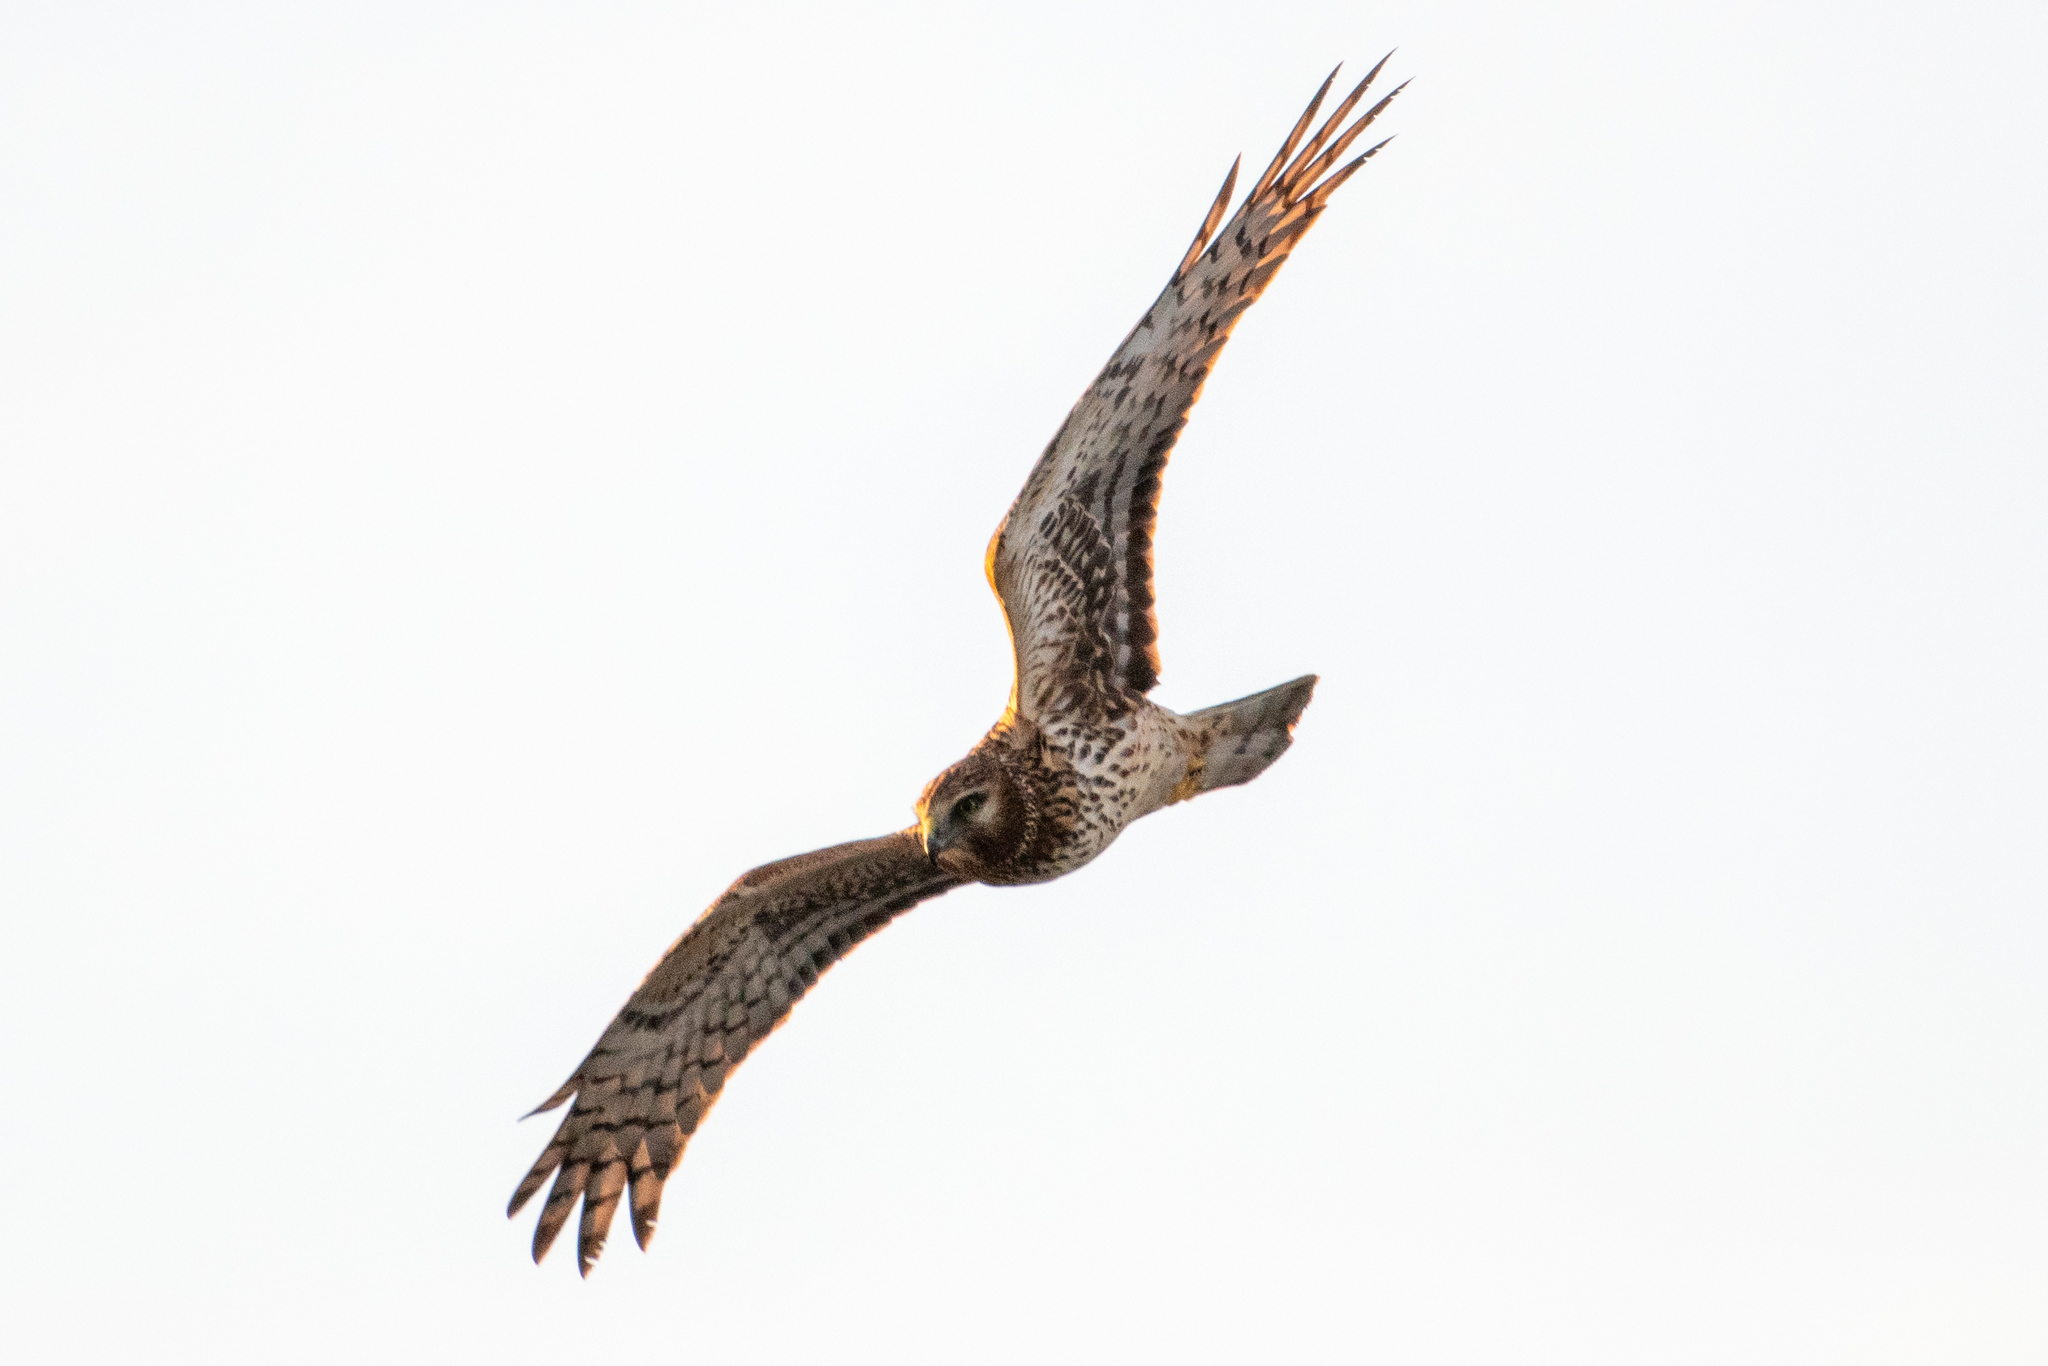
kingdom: Animalia
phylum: Chordata
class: Aves
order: Accipitriformes
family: Accipitridae
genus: Circus
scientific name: Circus cyaneus
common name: Hen harrier
